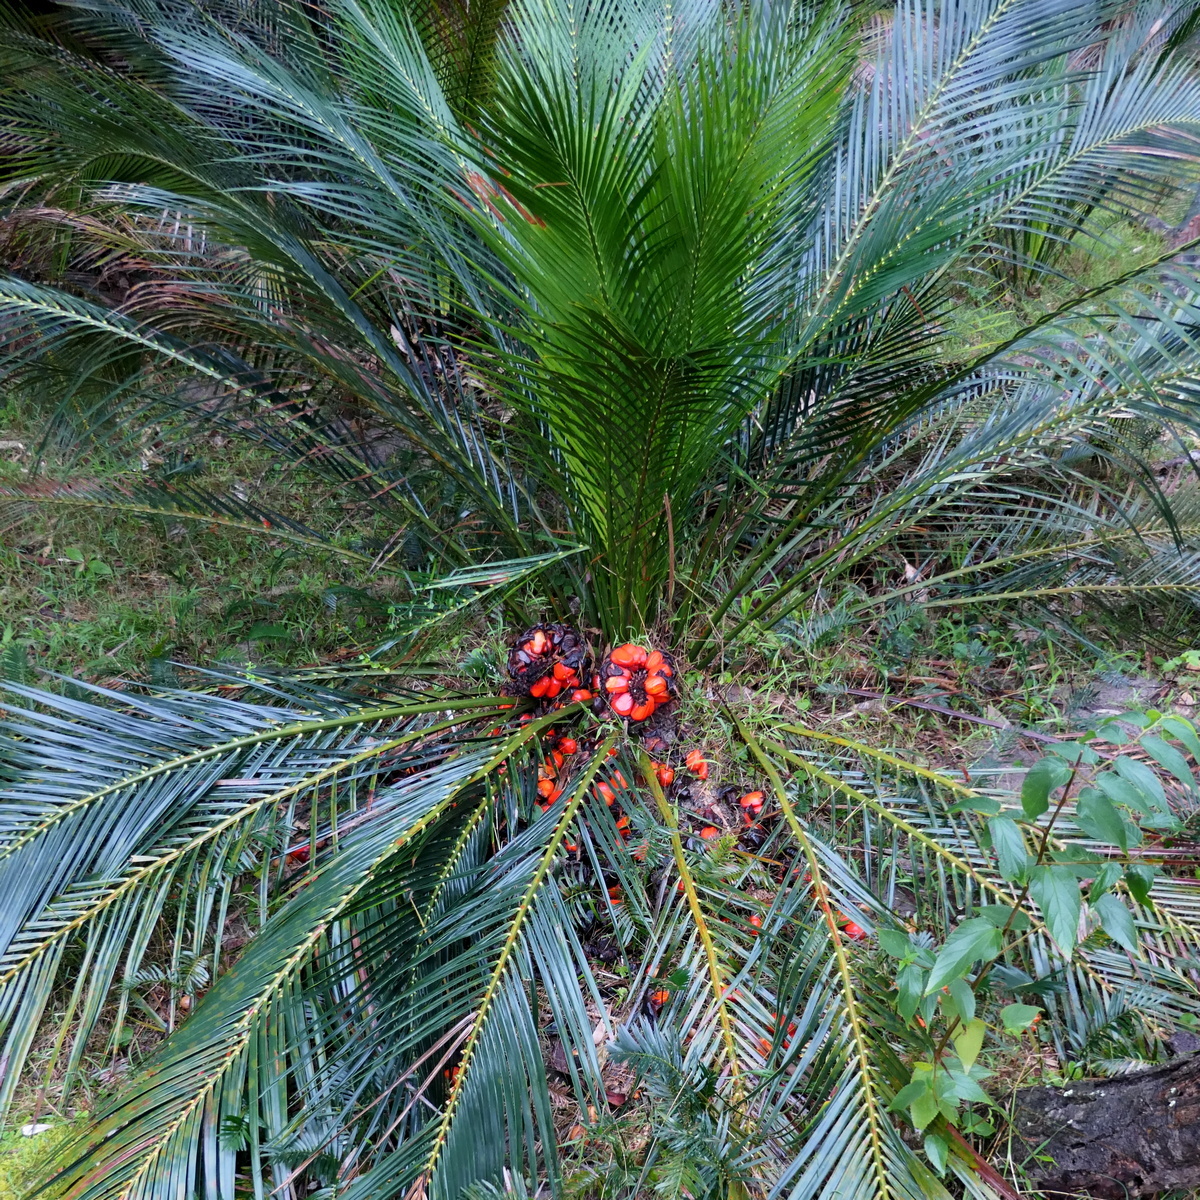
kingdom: Plantae
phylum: Tracheophyta
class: Cycadopsida
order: Cycadales
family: Zamiaceae
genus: Macrozamia
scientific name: Macrozamia communis
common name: Burrawong
